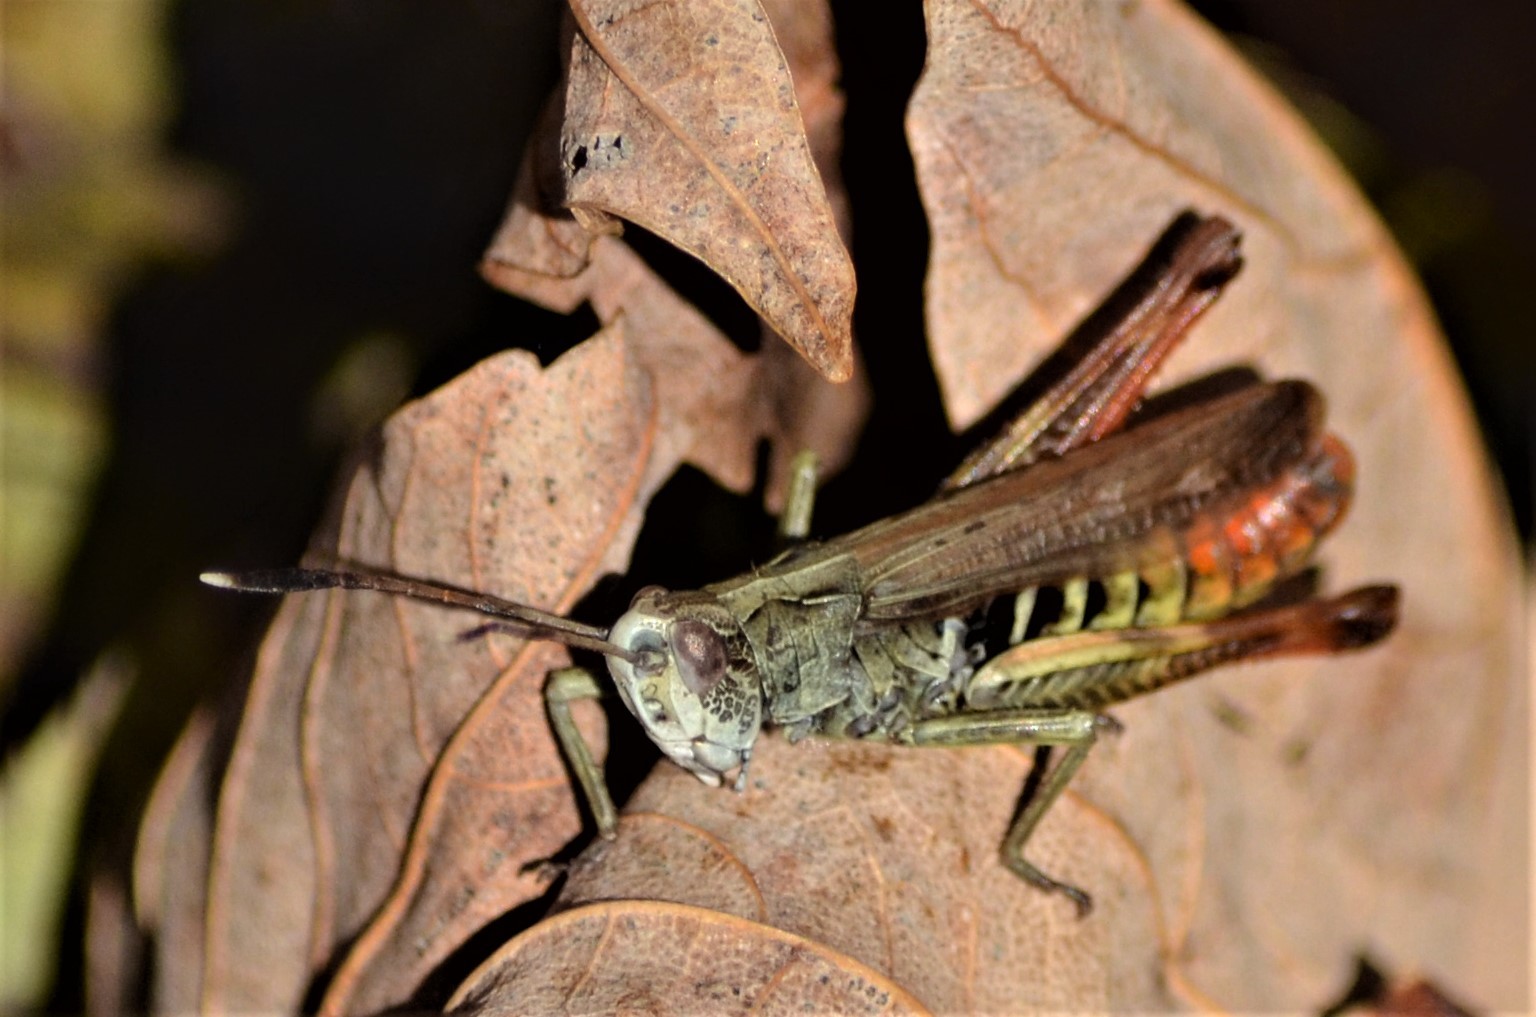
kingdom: Animalia
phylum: Arthropoda
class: Insecta
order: Orthoptera
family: Acrididae
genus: Gomphocerippus
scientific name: Gomphocerippus rufus
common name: Rufous grasshopper
